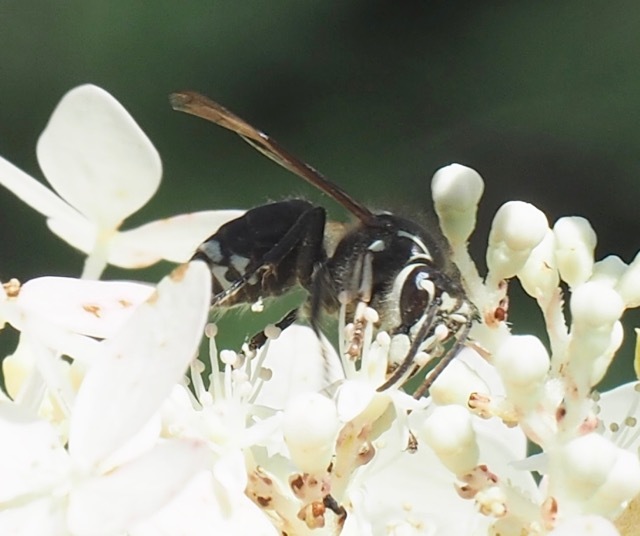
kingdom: Animalia
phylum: Arthropoda
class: Insecta
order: Hymenoptera
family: Vespidae
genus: Dolichovespula
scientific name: Dolichovespula maculata
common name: Bald-faced hornet
